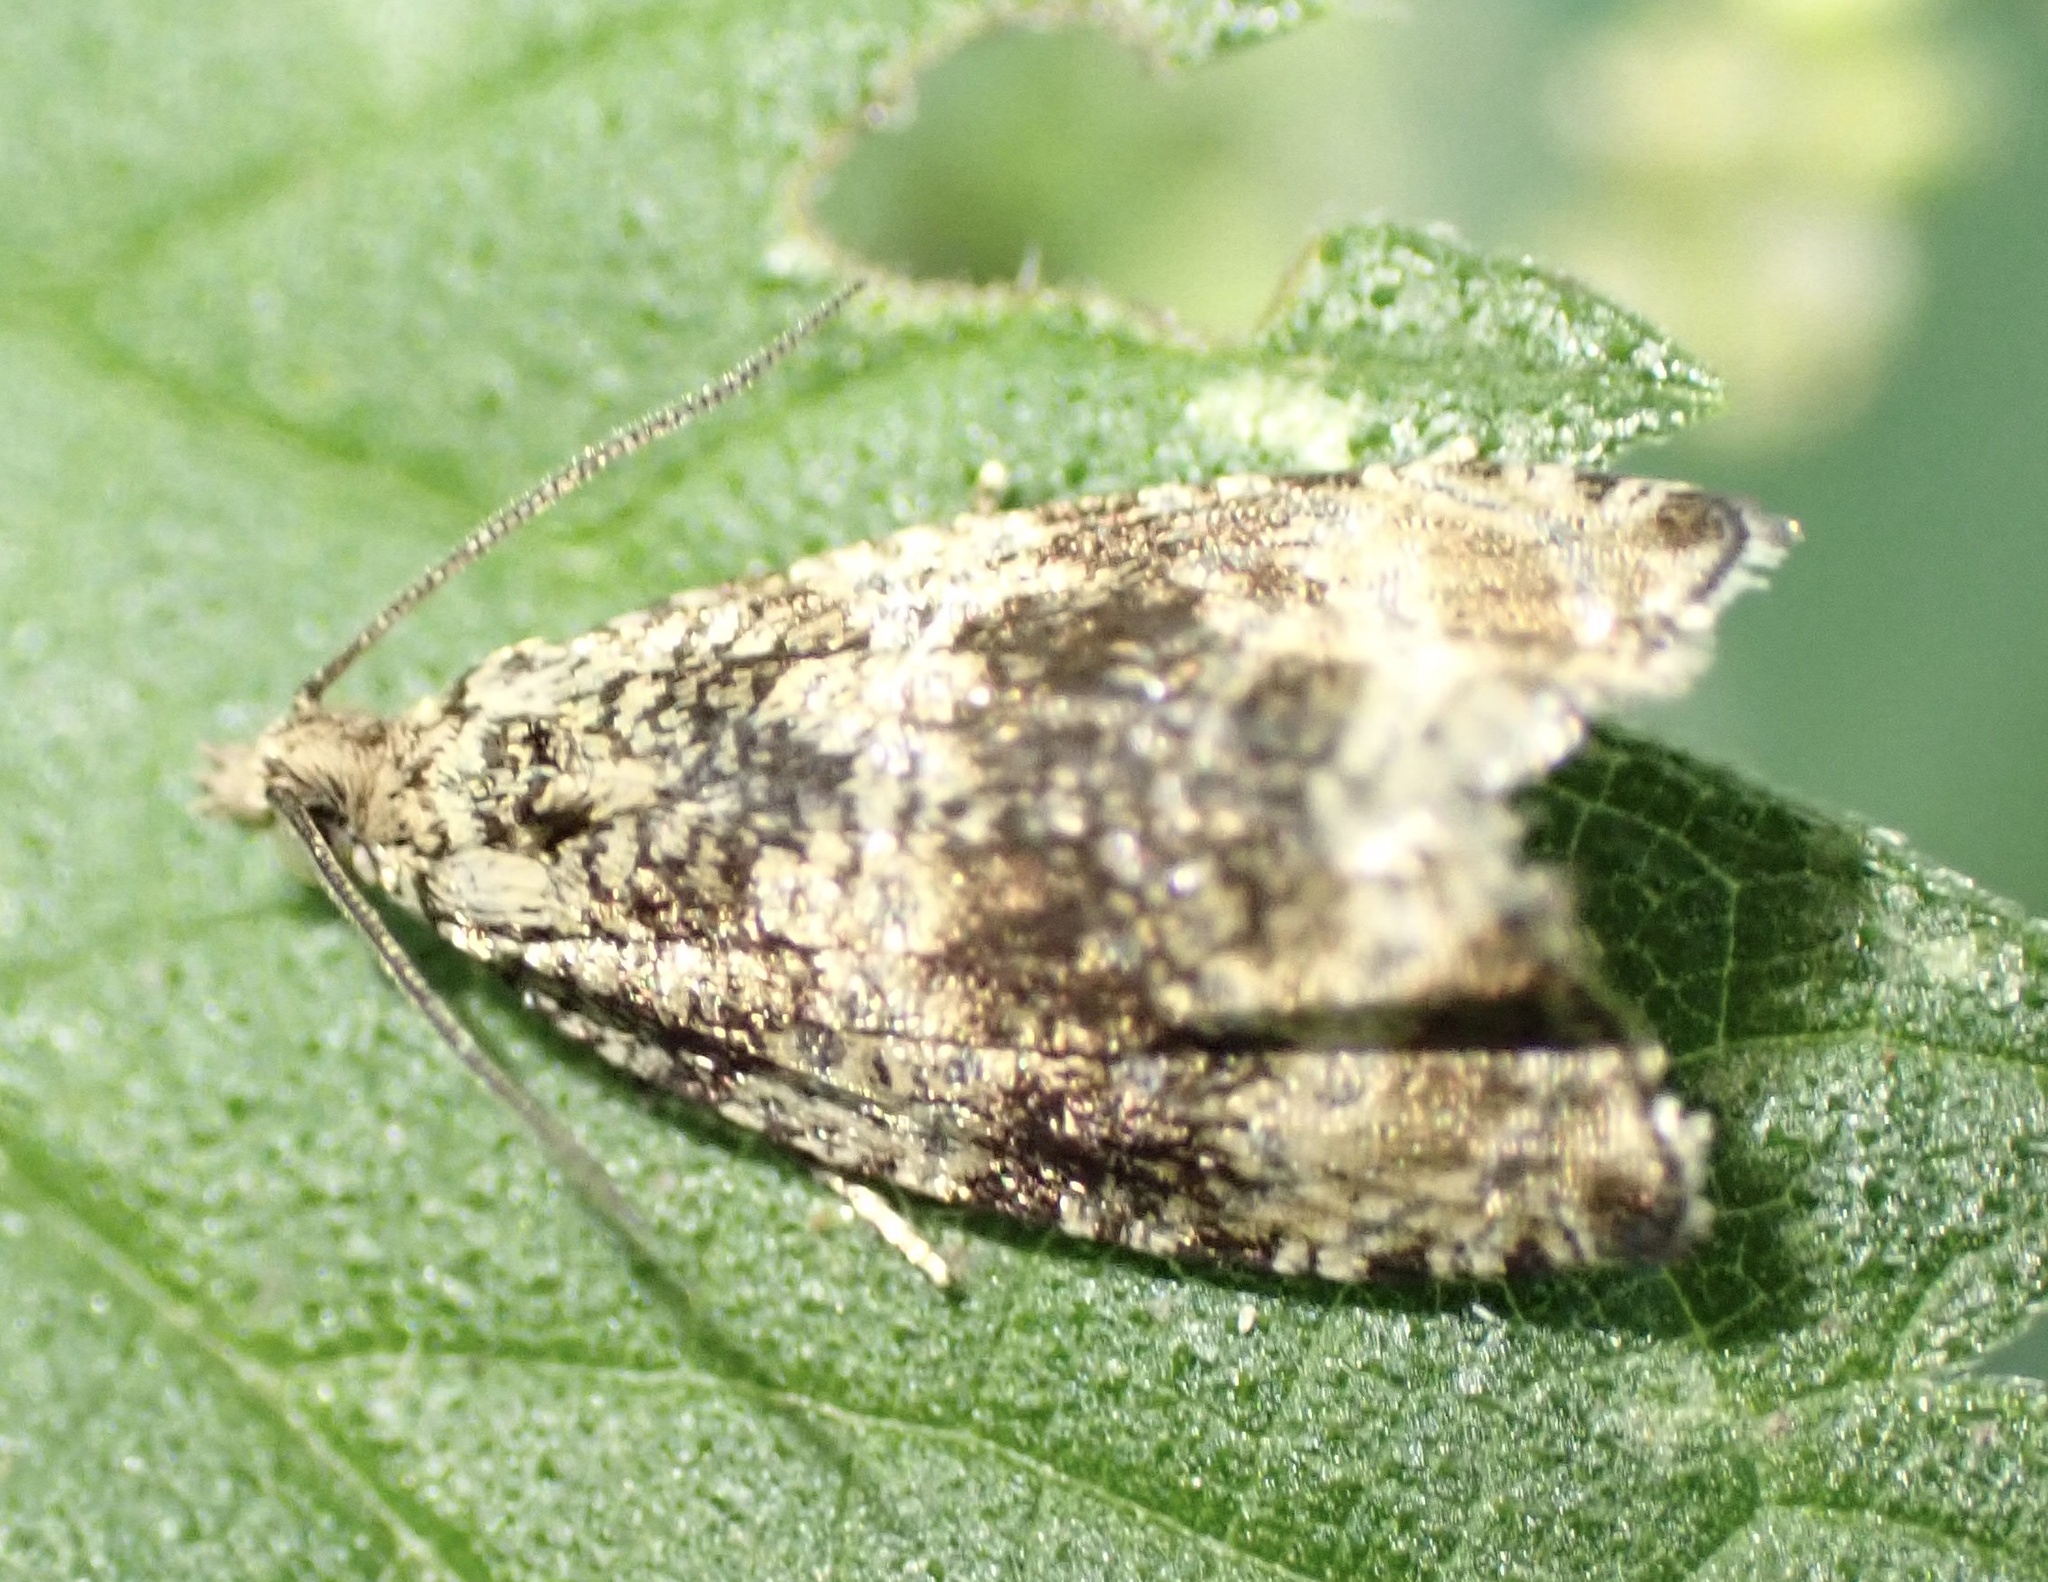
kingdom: Animalia
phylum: Arthropoda
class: Insecta
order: Lepidoptera
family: Tortricidae
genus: Syricoris
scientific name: Syricoris lacunana
